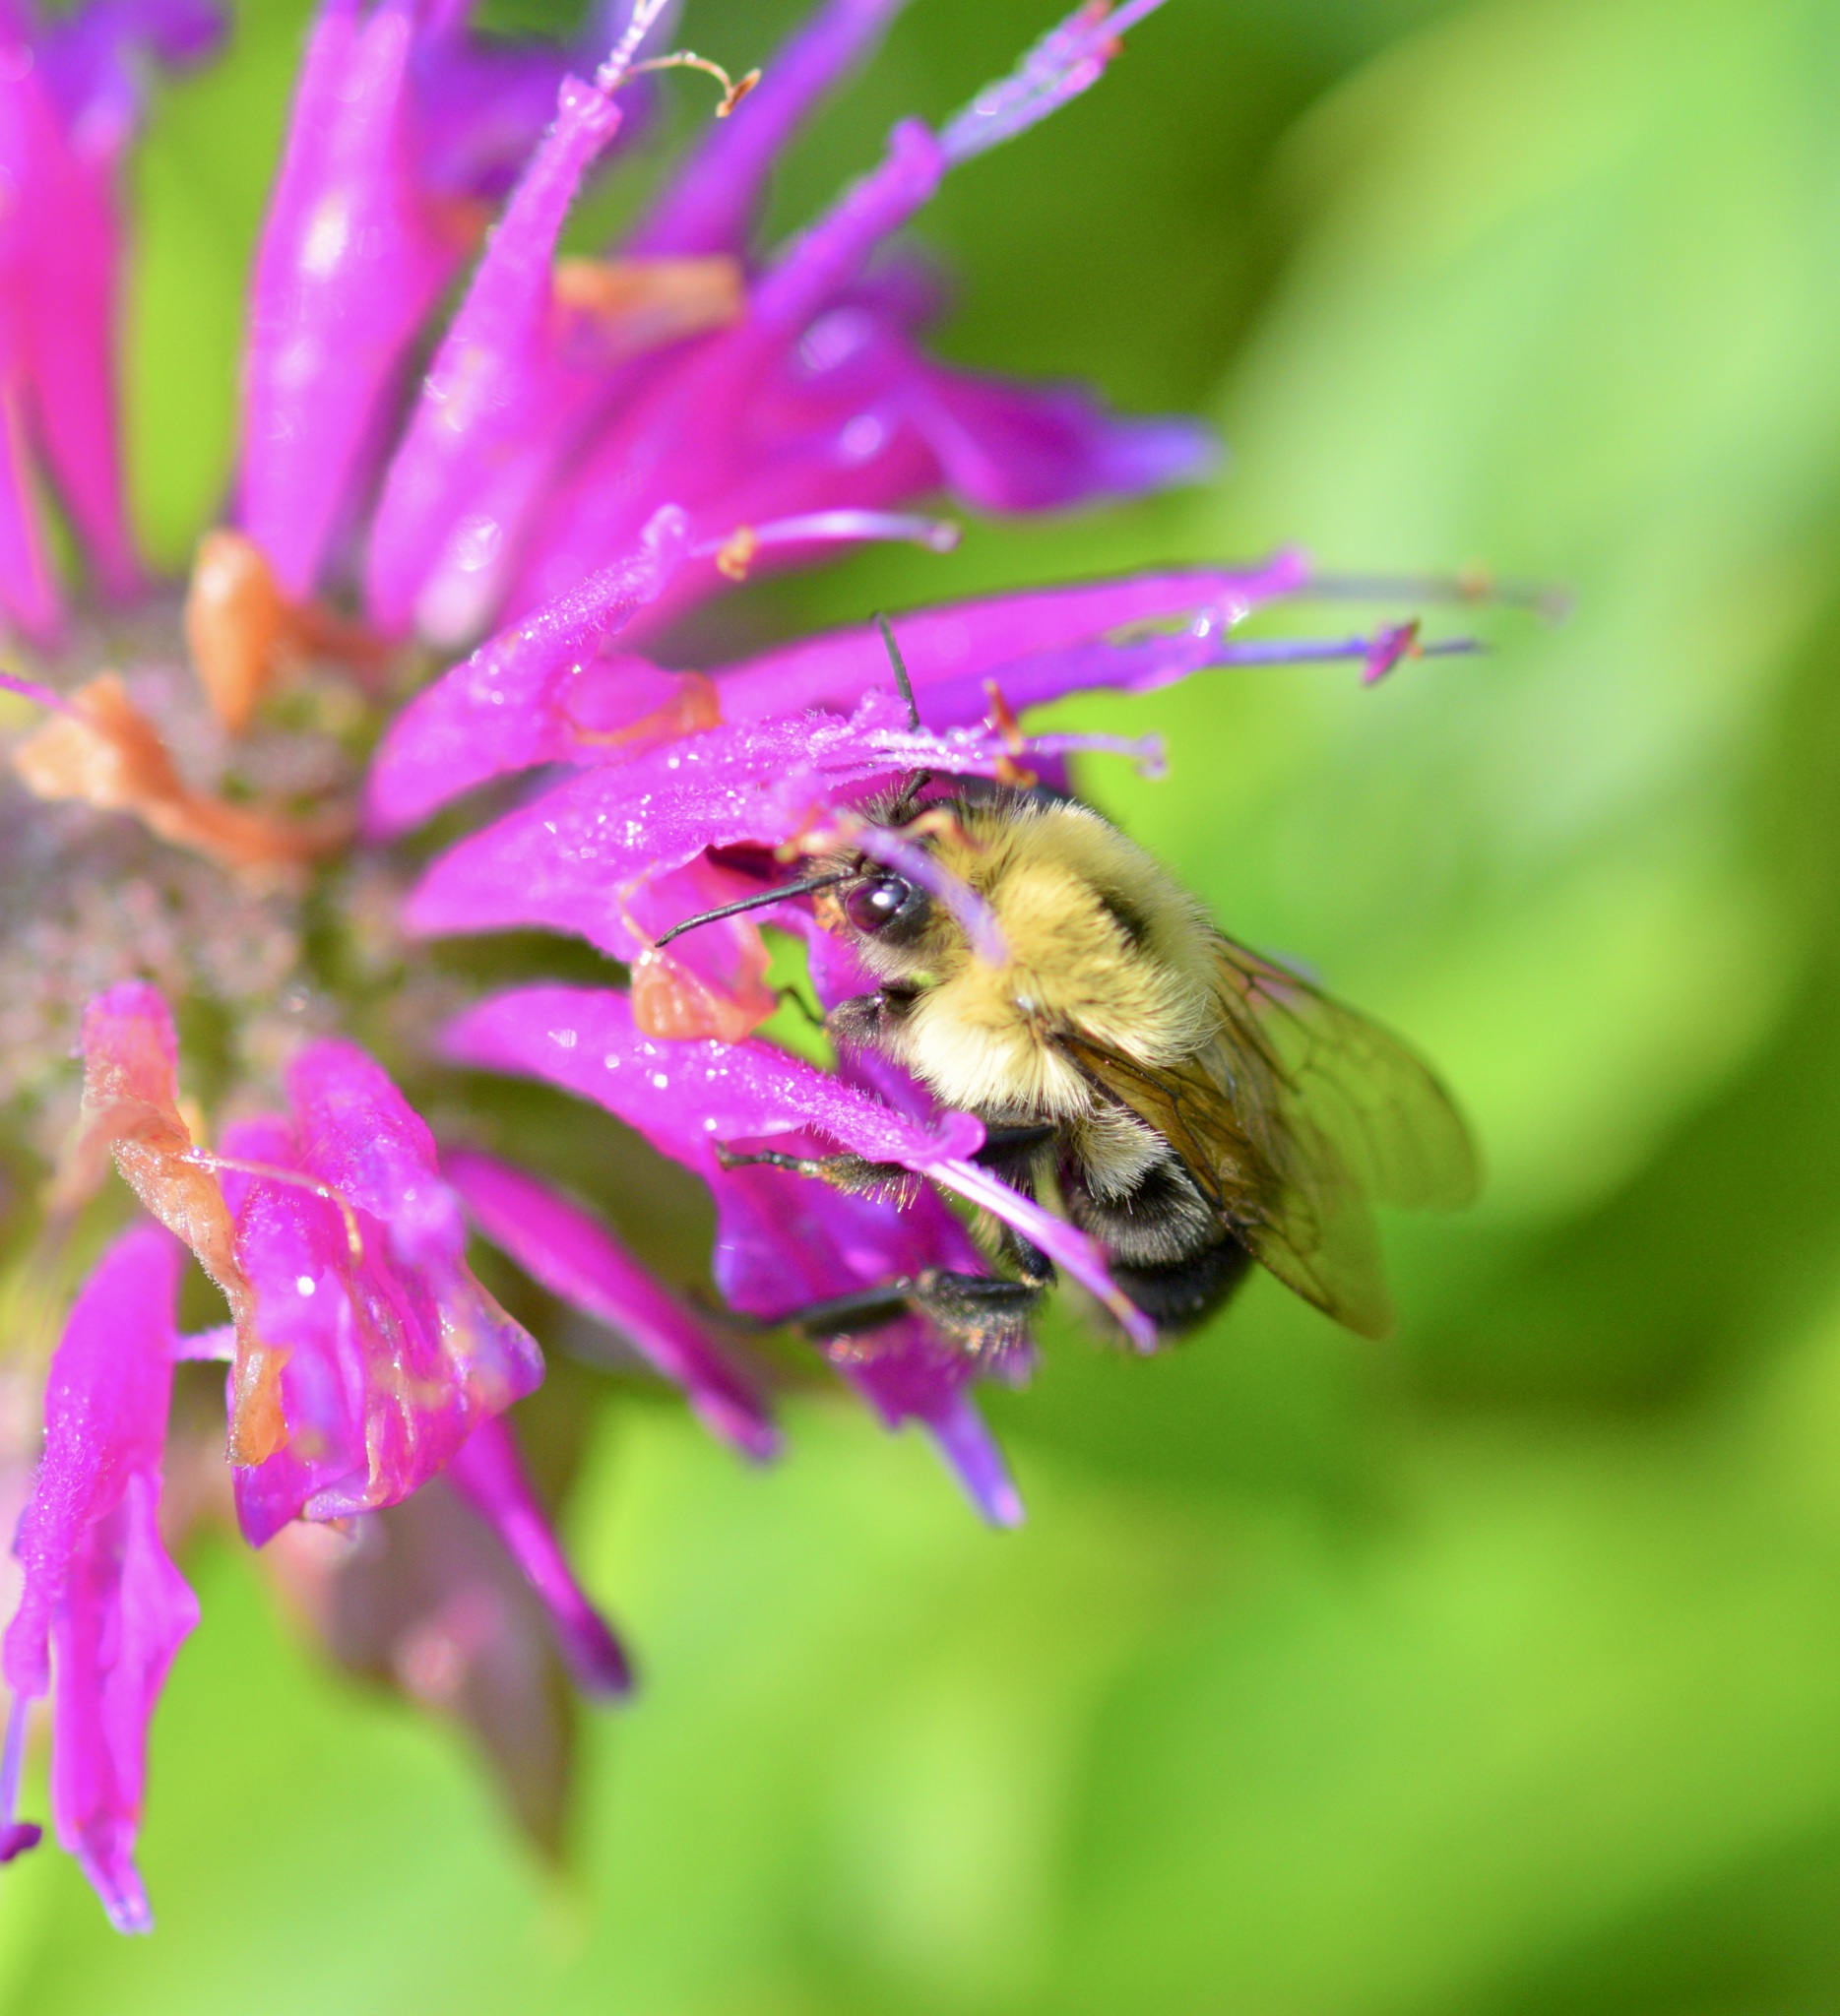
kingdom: Animalia
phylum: Arthropoda
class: Insecta
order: Hymenoptera
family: Apidae
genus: Bombus
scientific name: Bombus bimaculatus
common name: Two-spotted bumble bee
